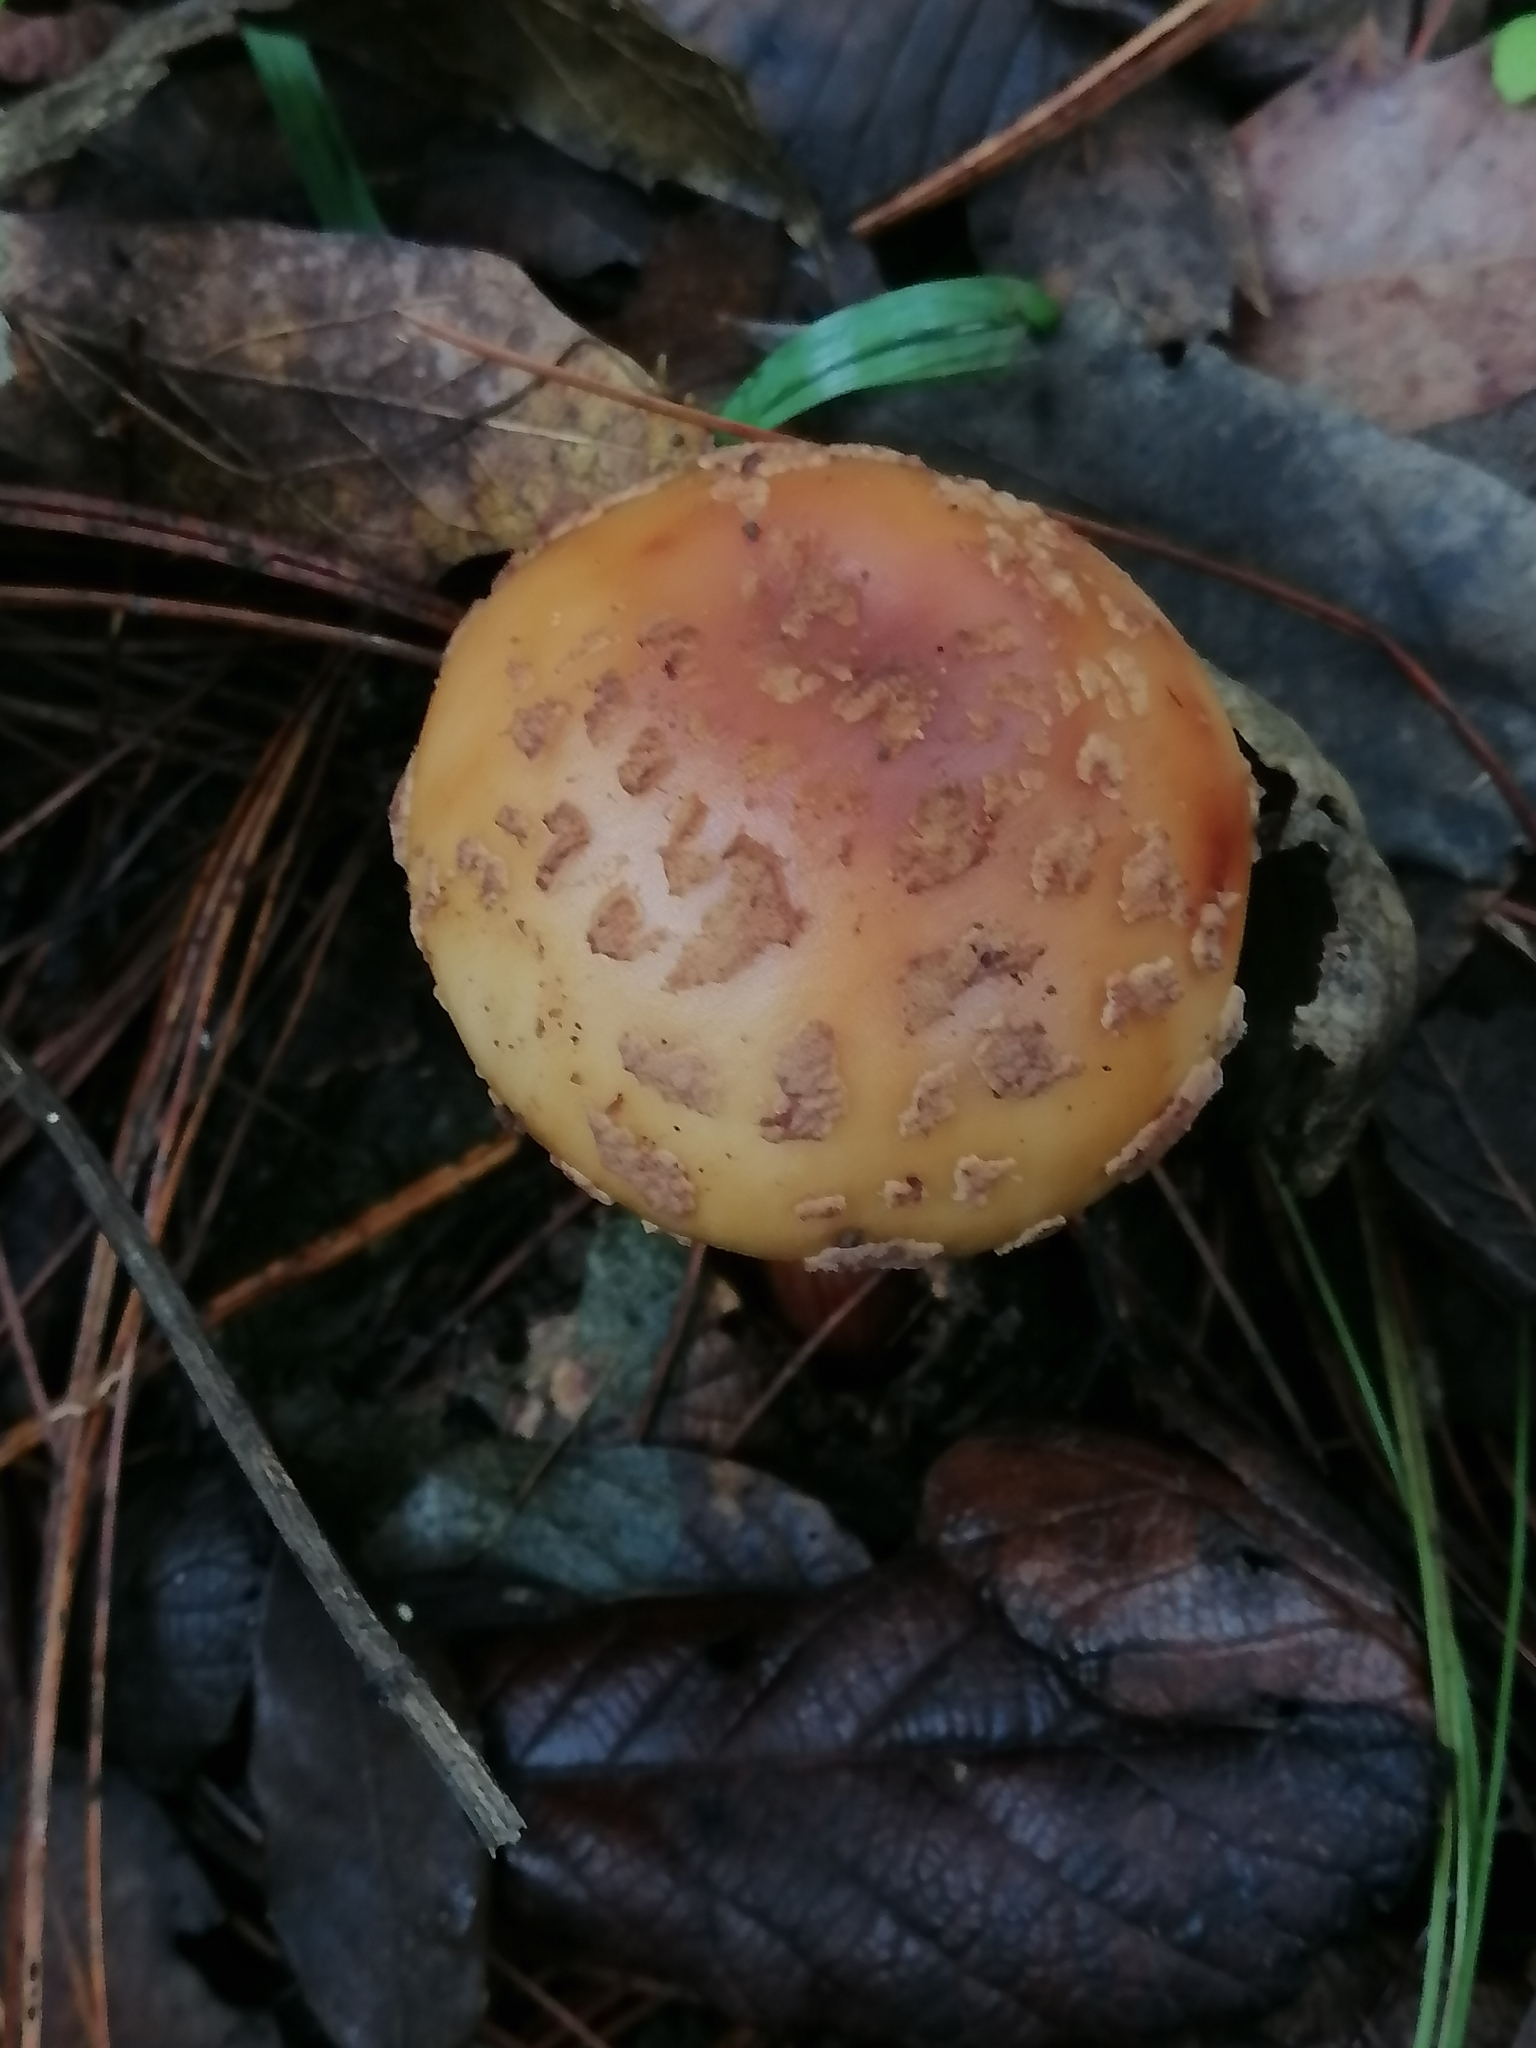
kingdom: Fungi
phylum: Basidiomycota
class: Agaricomycetes
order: Agaricales
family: Amanitaceae
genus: Amanita
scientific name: Amanita brunneolocularis
